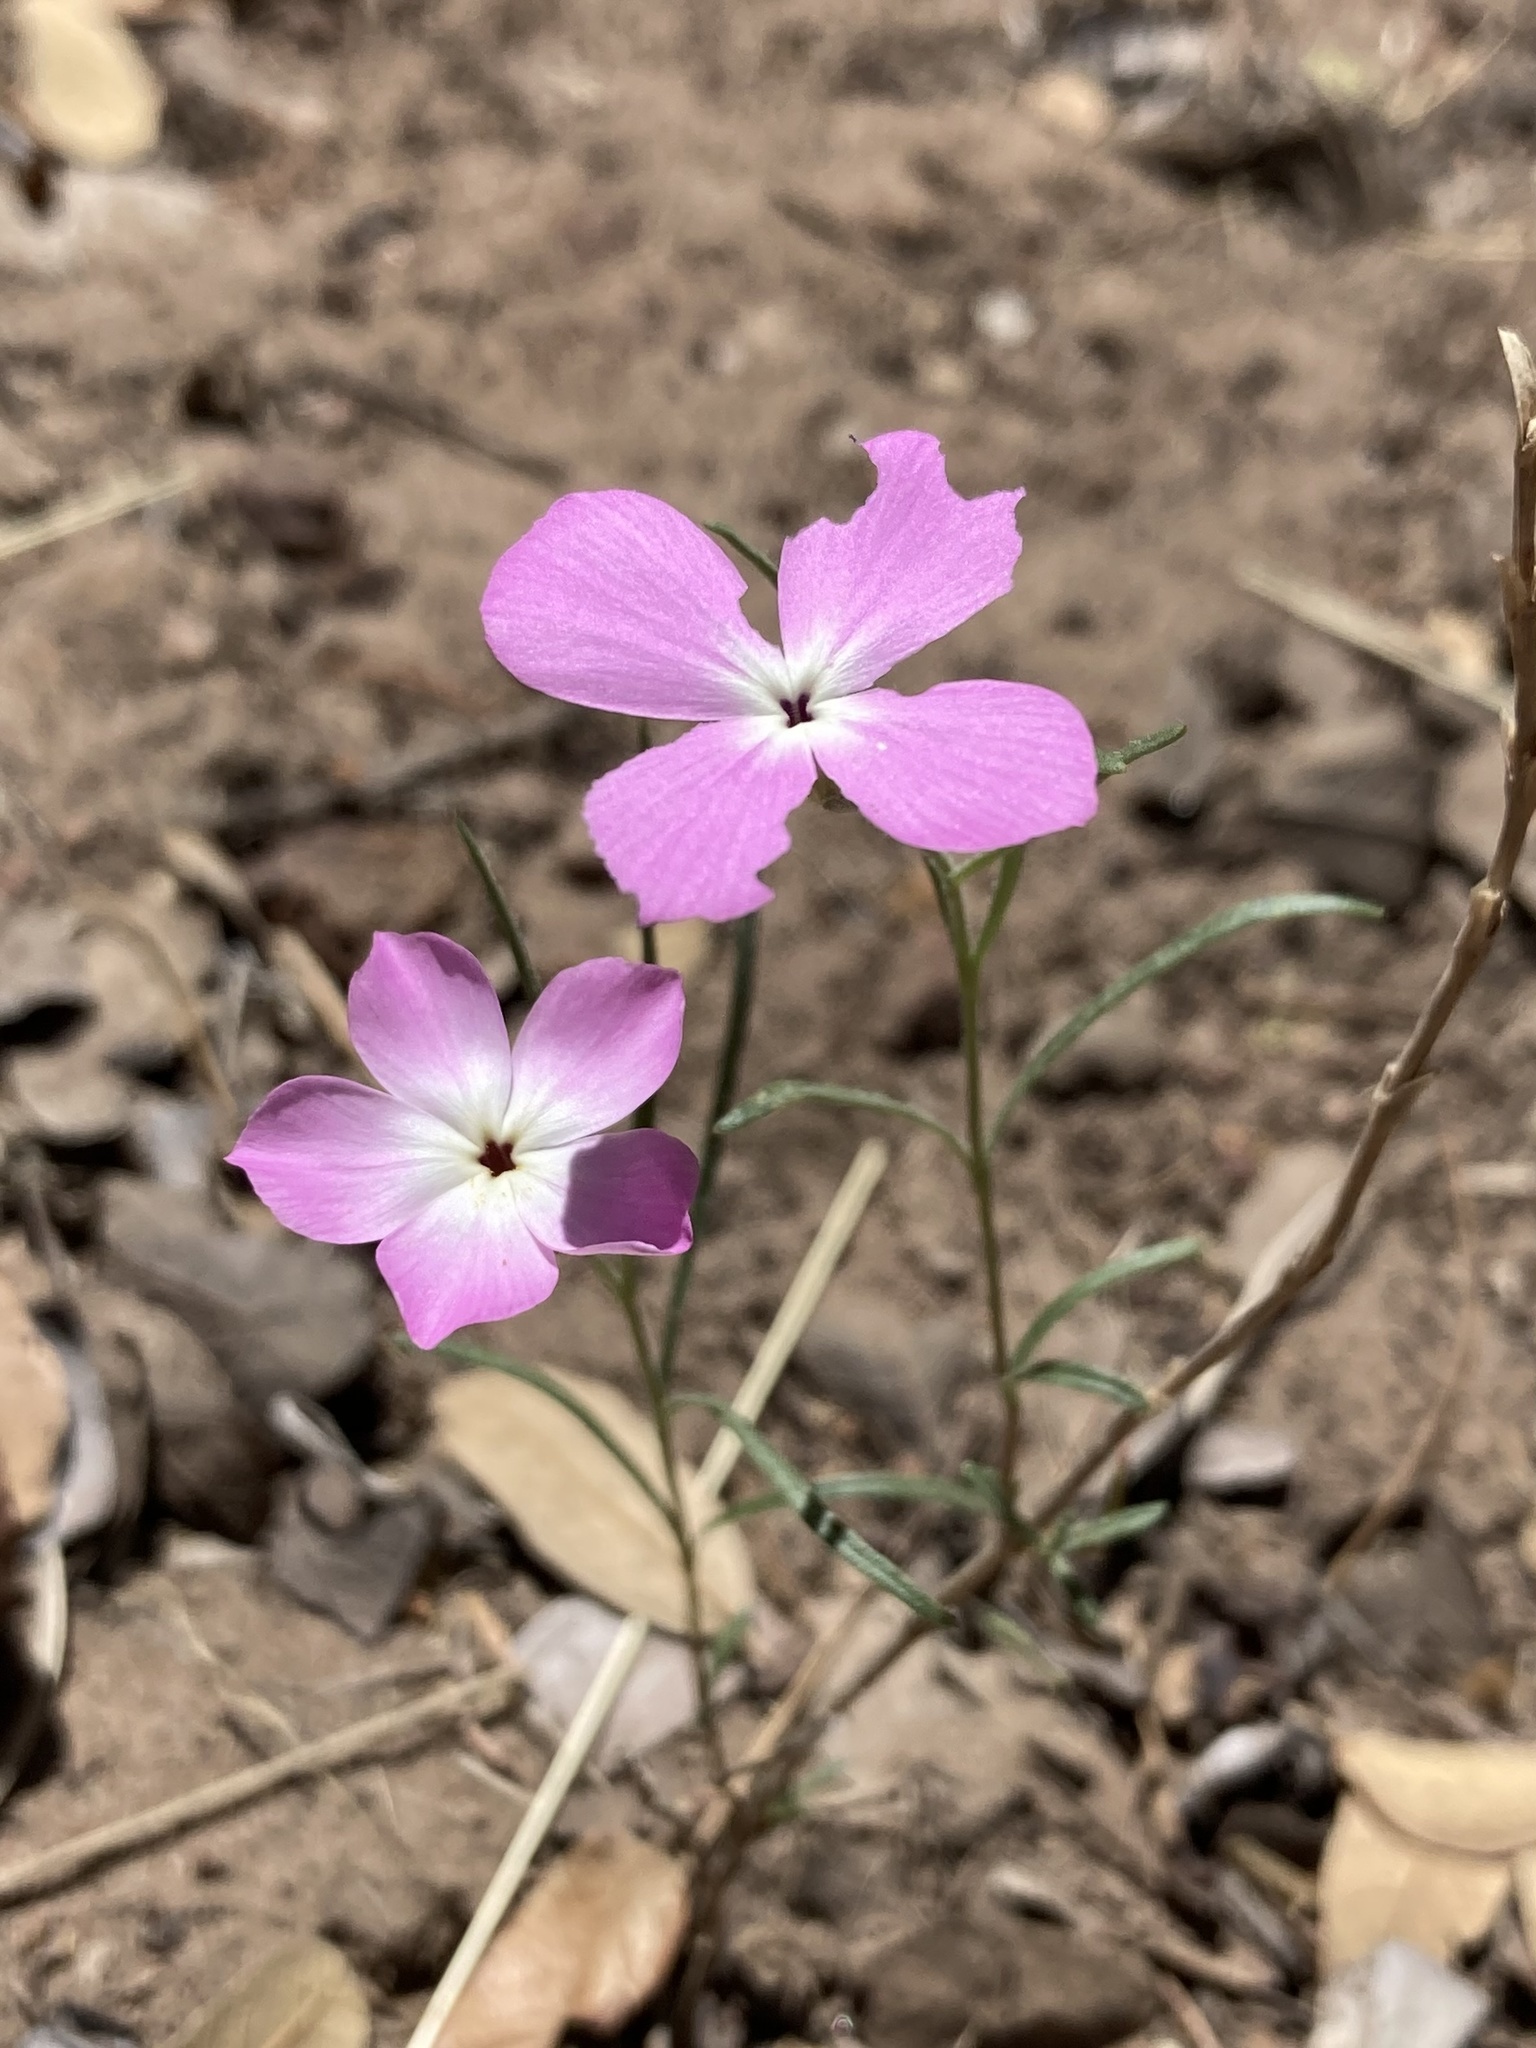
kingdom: Plantae
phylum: Tracheophyta
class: Magnoliopsida
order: Ericales
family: Polemoniaceae
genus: Phlox
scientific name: Phlox nana
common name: Santa fe phlox
